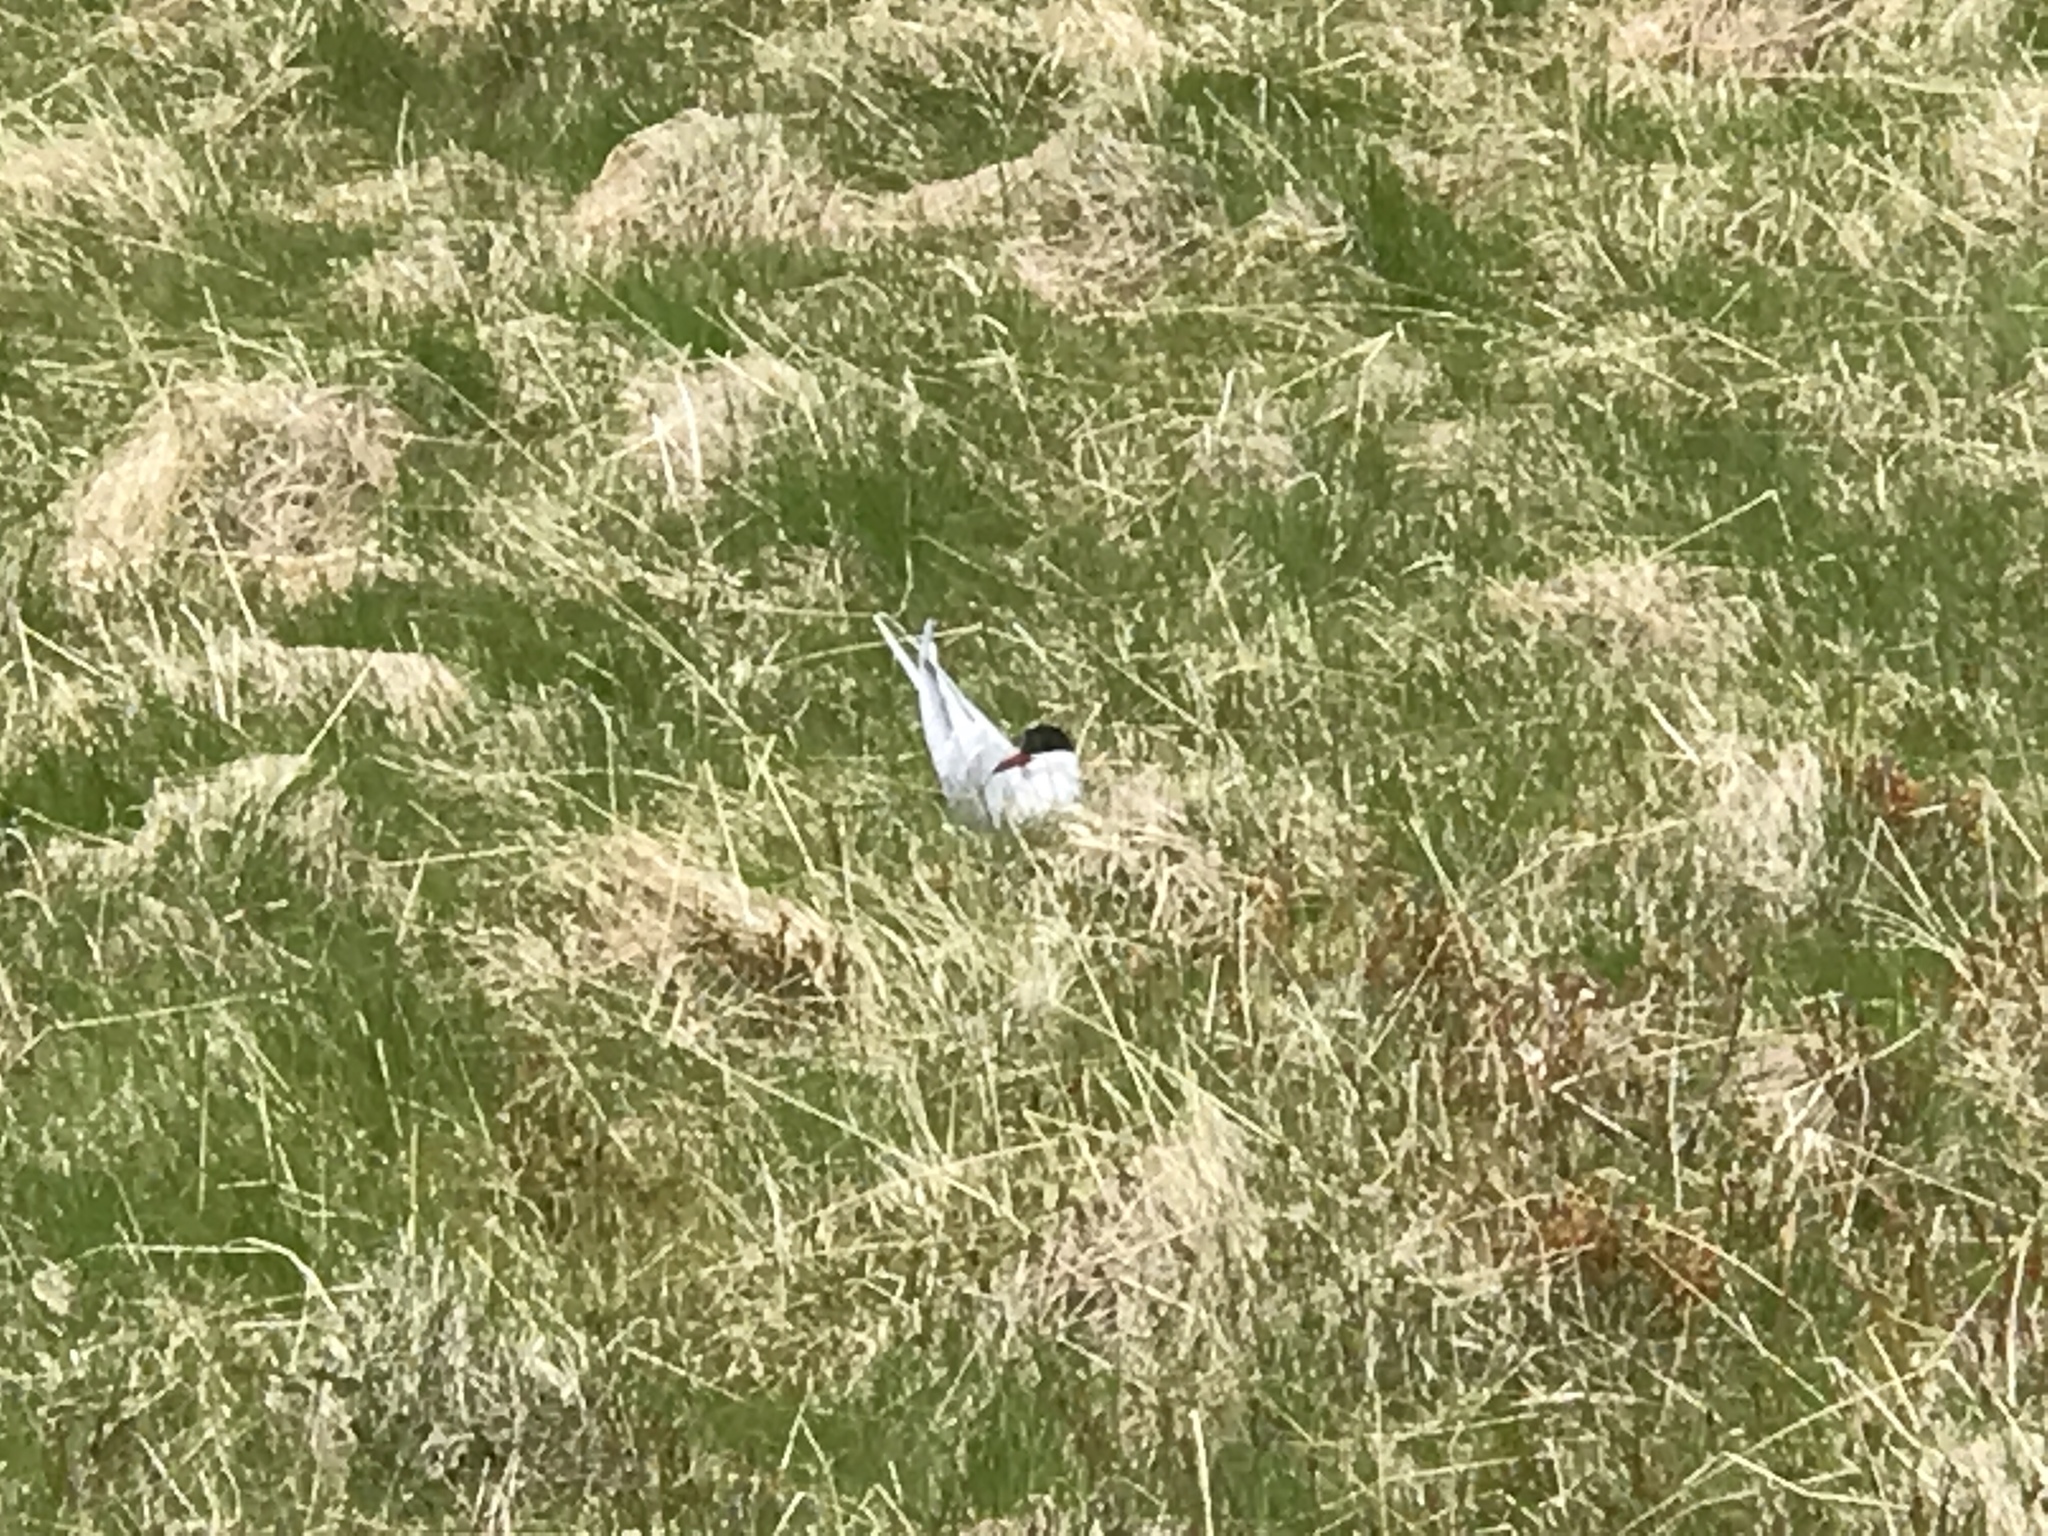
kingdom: Animalia
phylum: Chordata
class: Aves
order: Charadriiformes
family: Laridae
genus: Sterna
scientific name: Sterna paradisaea
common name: Arctic tern
